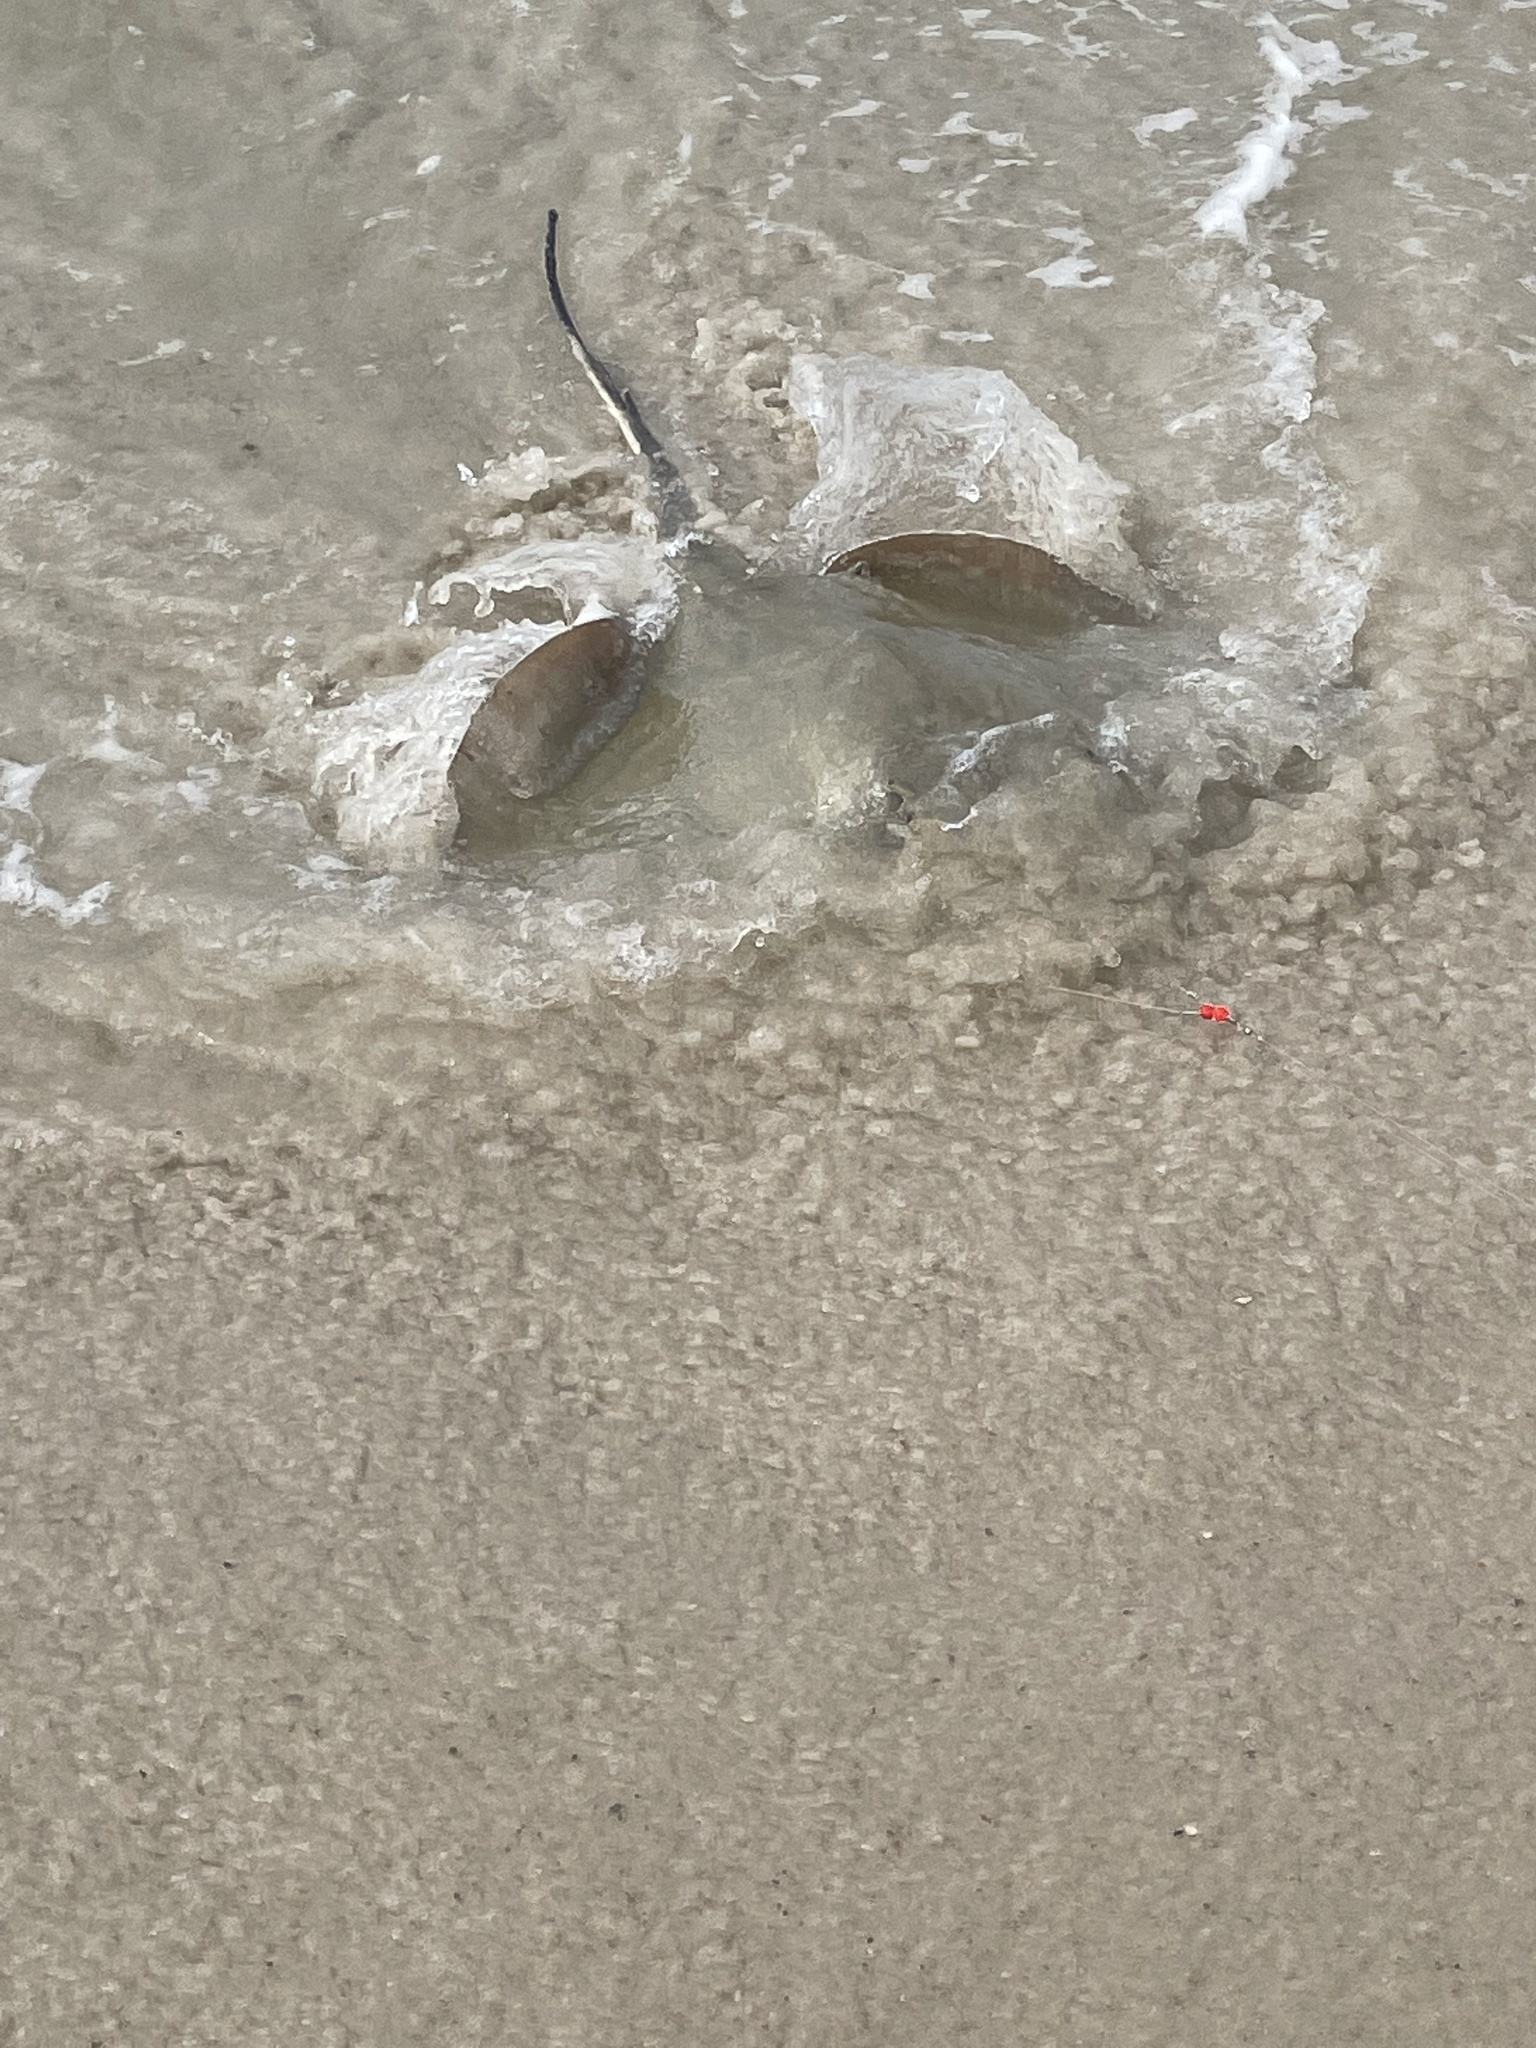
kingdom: Animalia
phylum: Chordata
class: Elasmobranchii
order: Myliobatiformes
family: Dasyatidae
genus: Hypanus
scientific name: Hypanus
